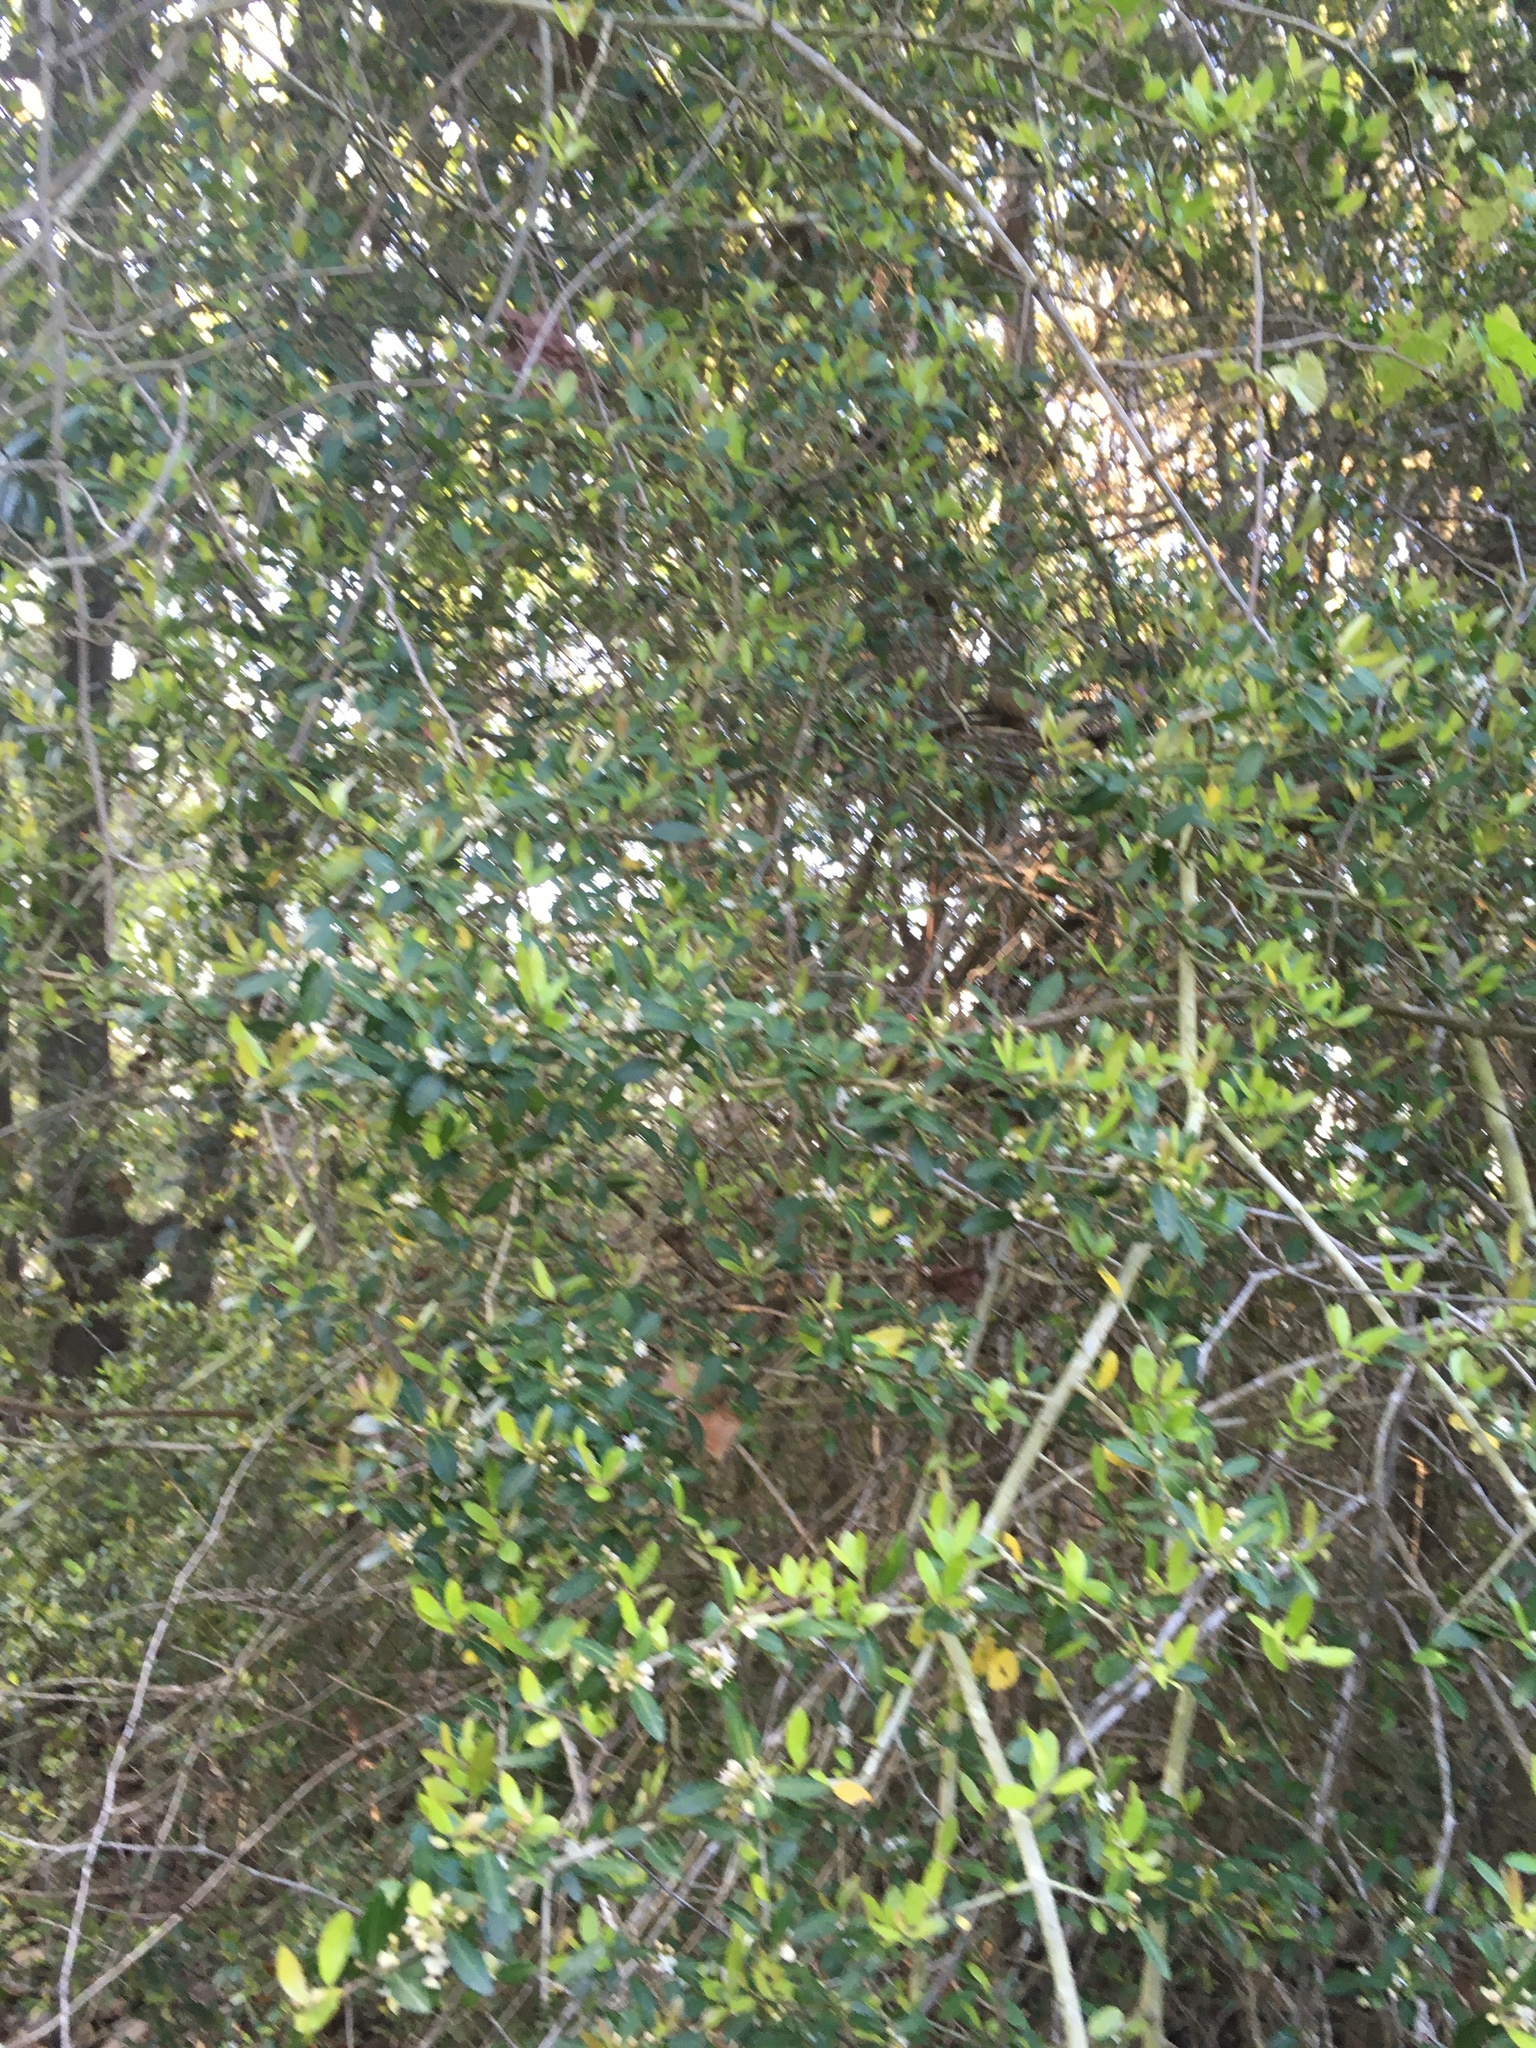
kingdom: Plantae
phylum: Tracheophyta
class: Magnoliopsida
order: Aquifoliales
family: Aquifoliaceae
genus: Ilex
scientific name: Ilex vomitoria
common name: Yaupon holly
